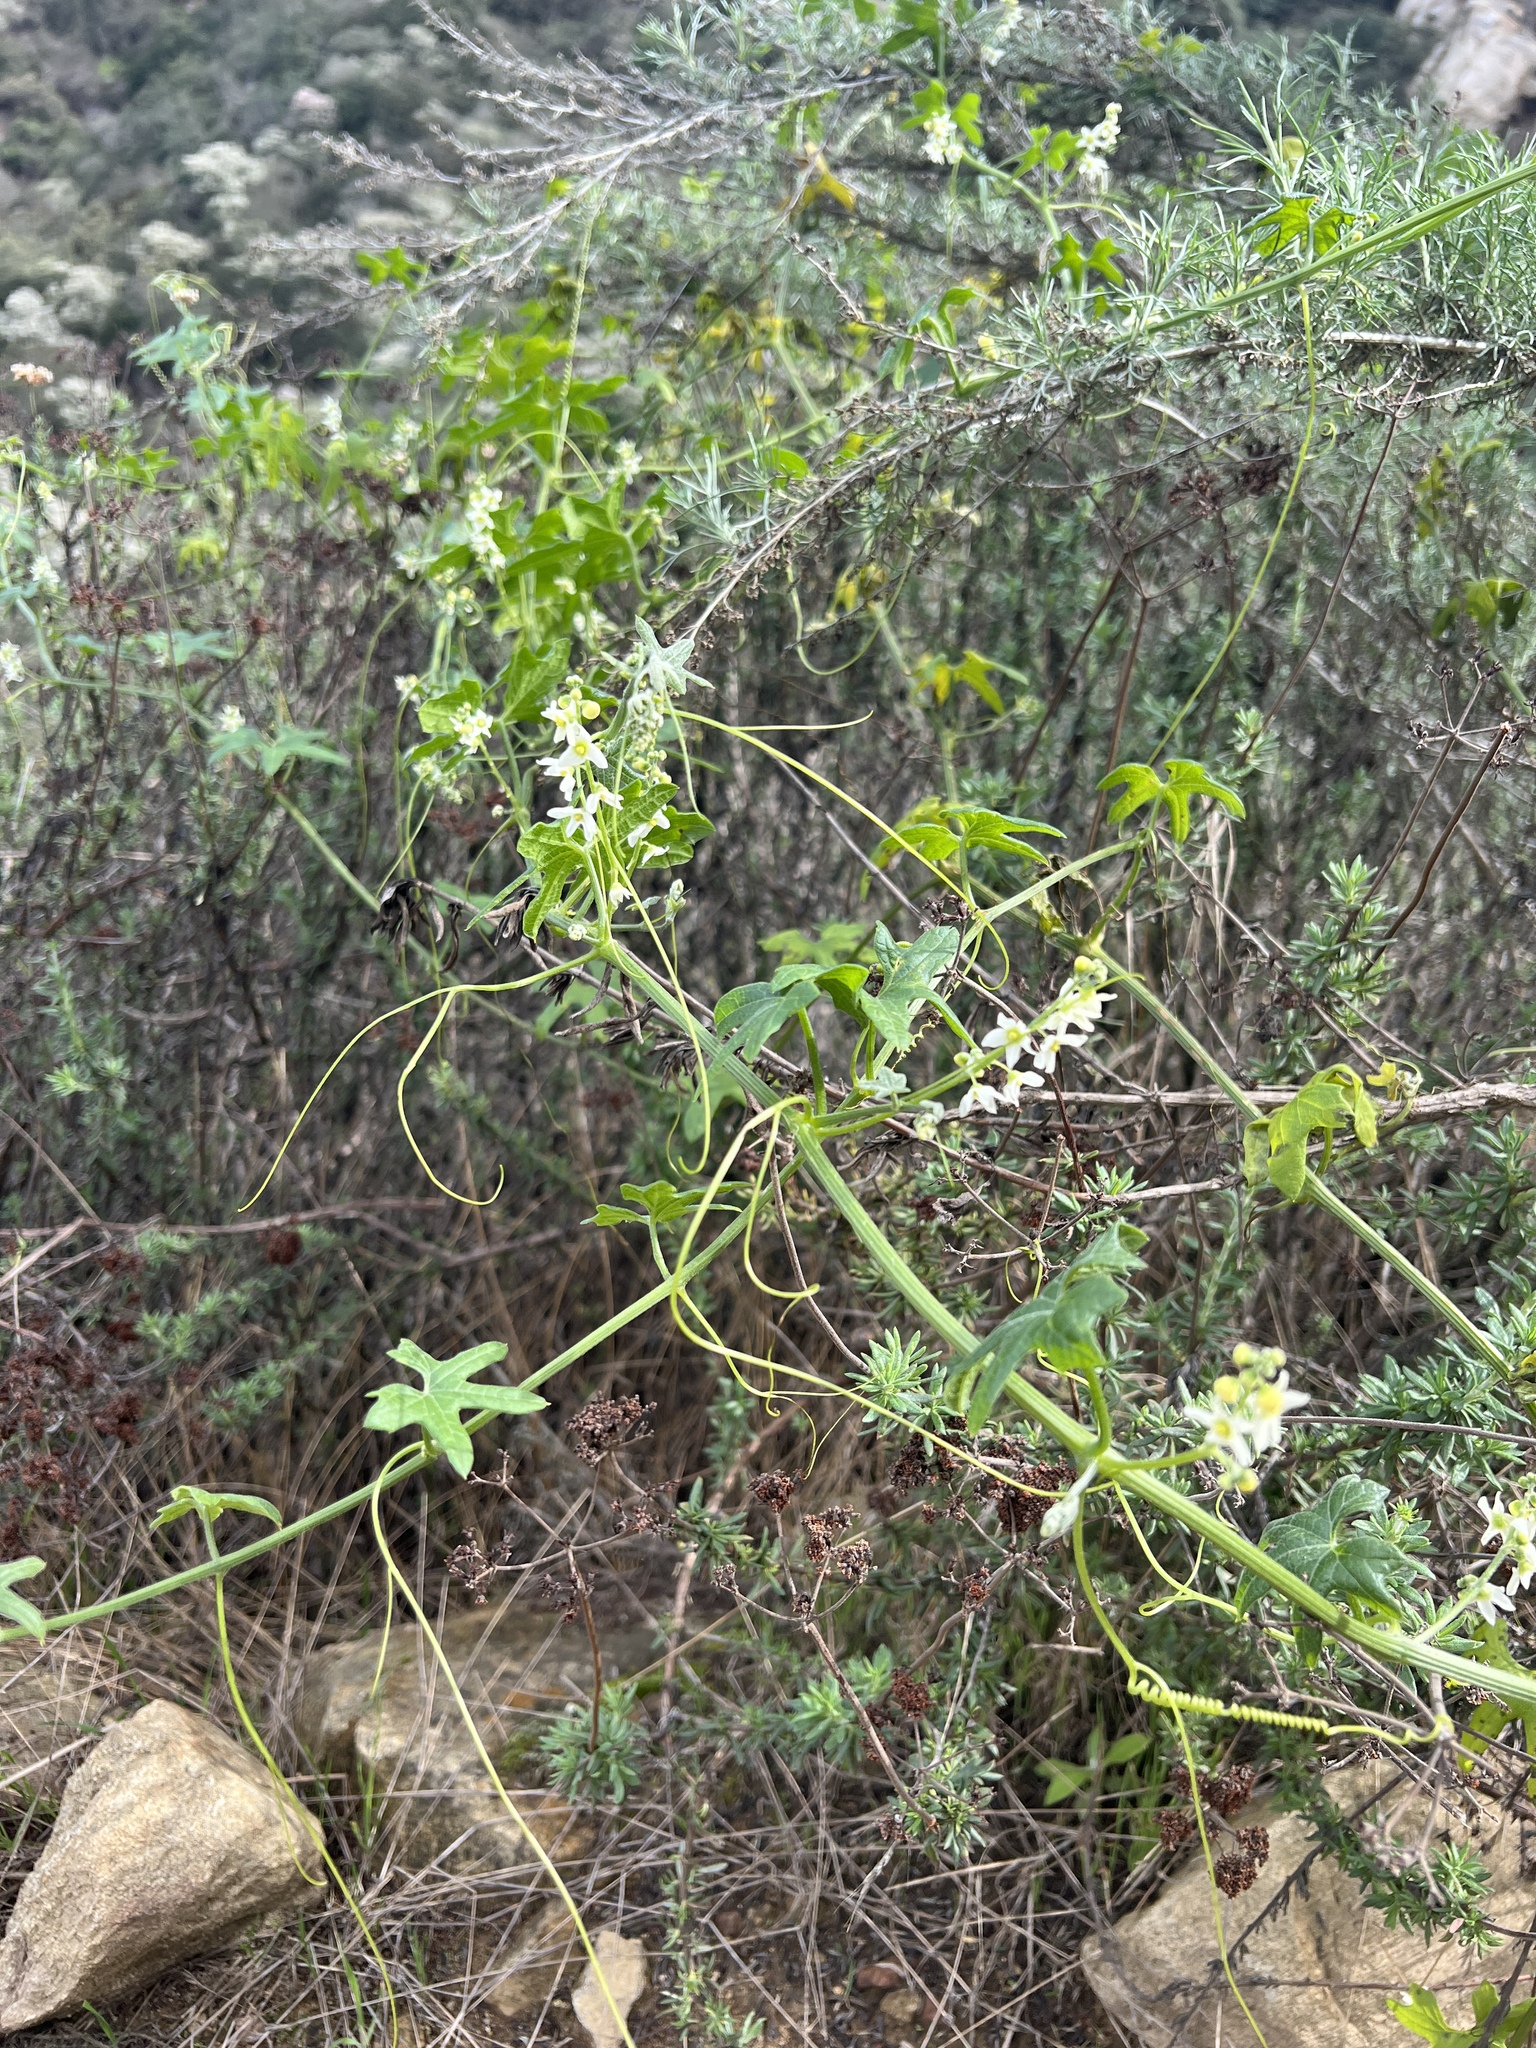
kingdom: Plantae
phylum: Tracheophyta
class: Magnoliopsida
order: Cucurbitales
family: Cucurbitaceae
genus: Marah
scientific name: Marah macrocarpa
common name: Cucamonga manroot
